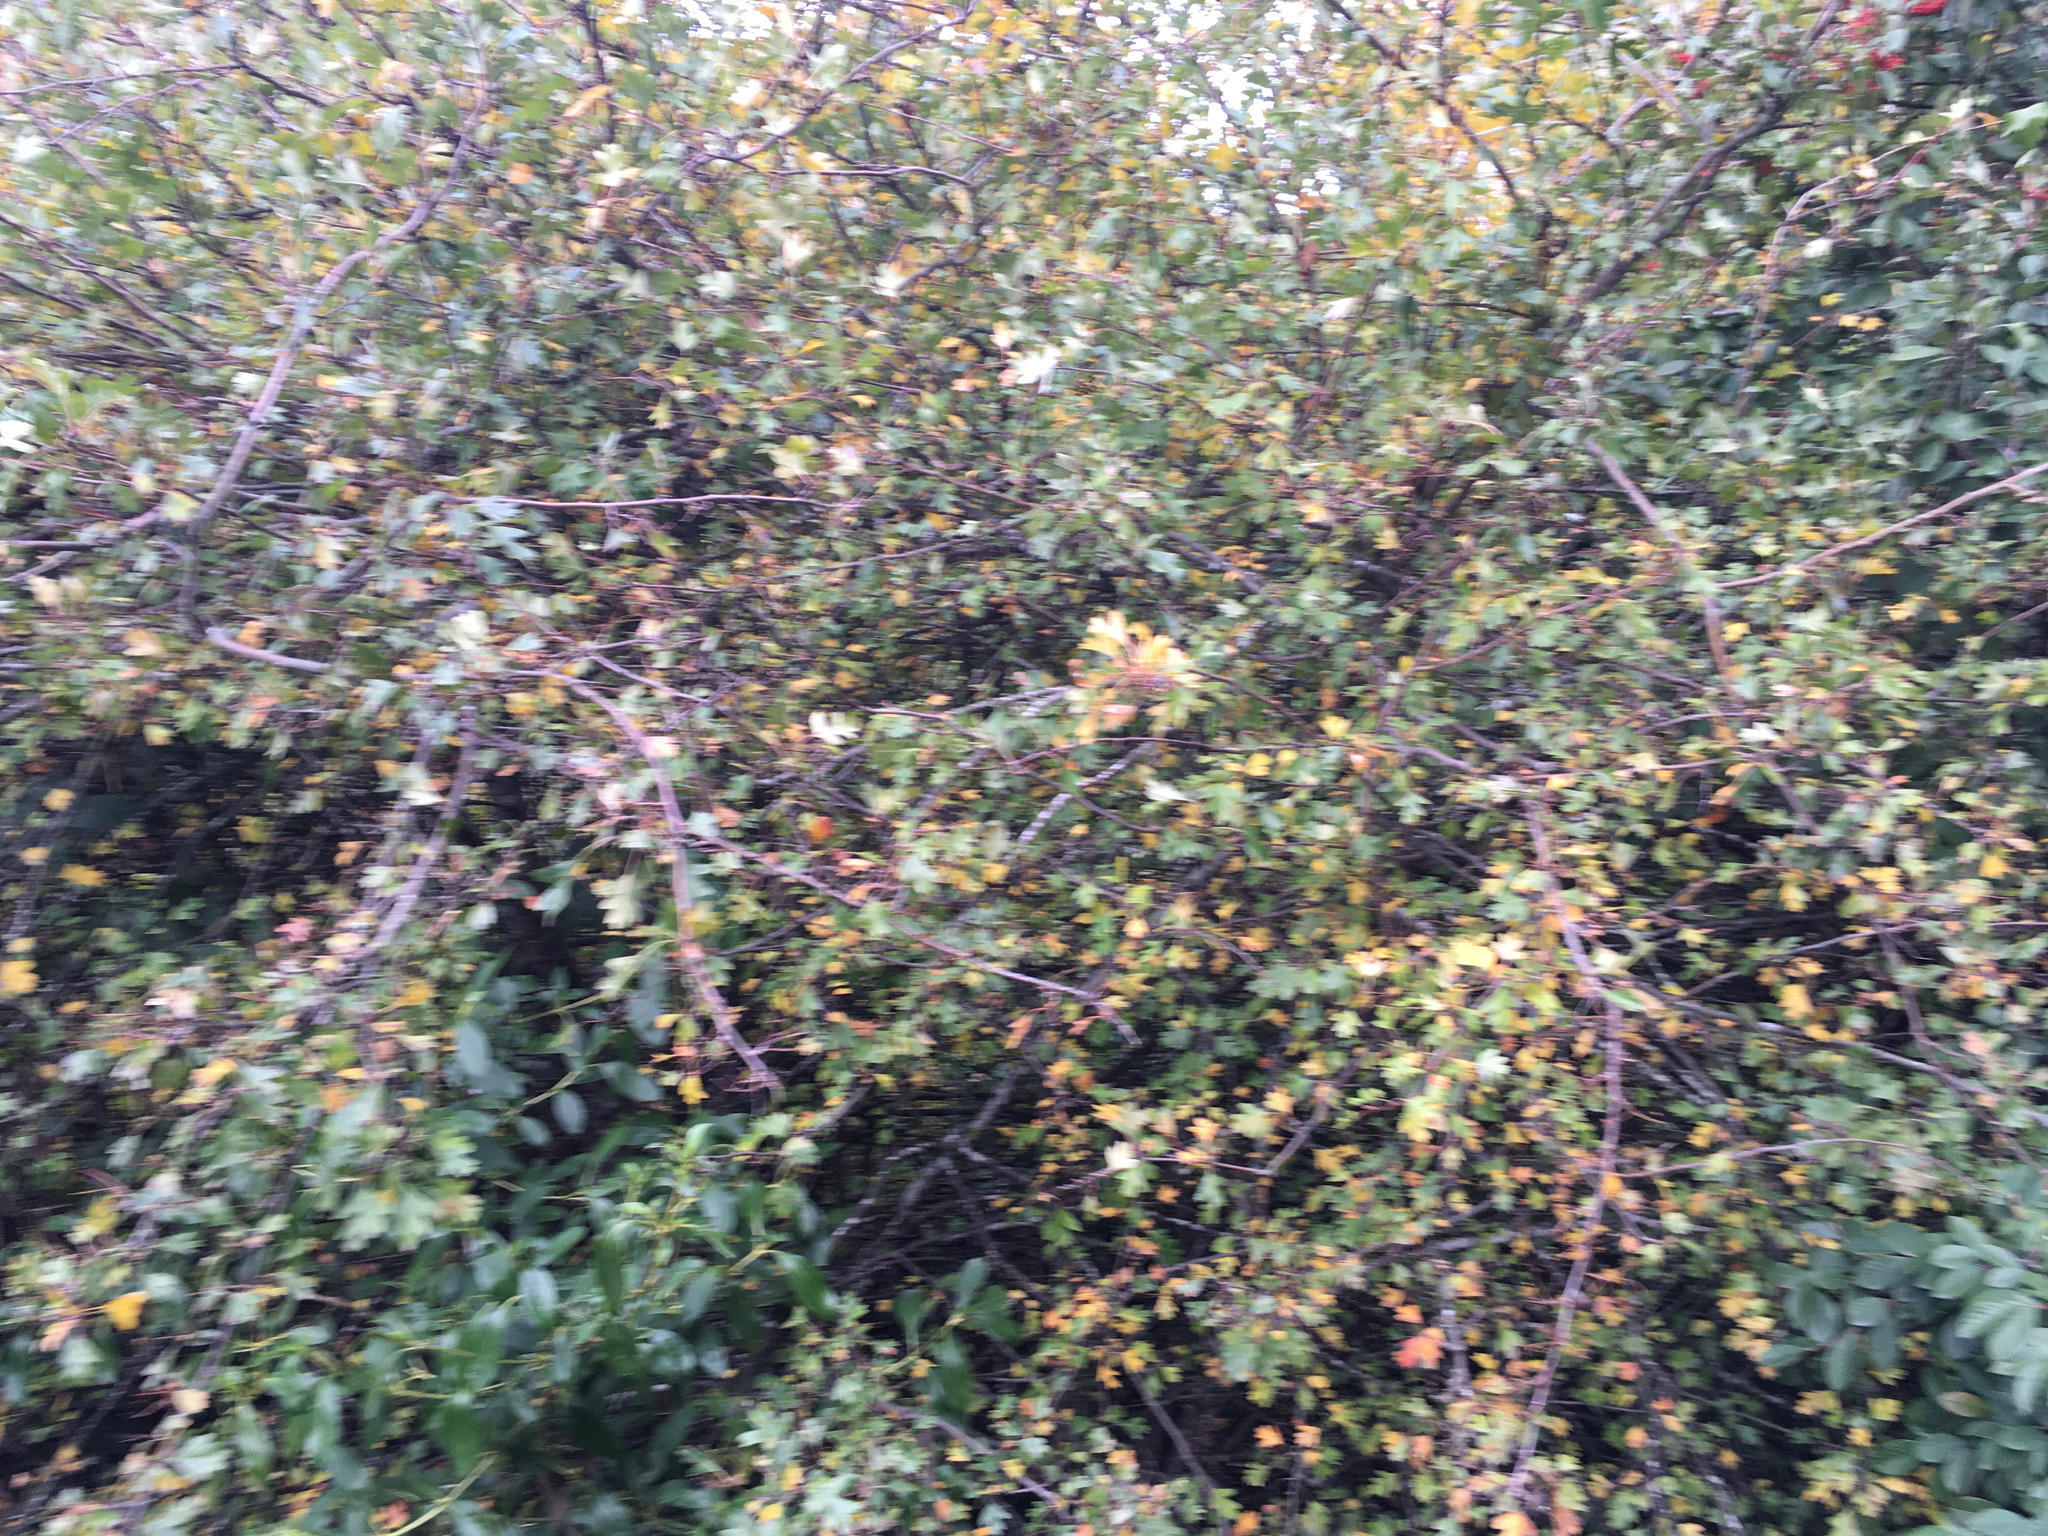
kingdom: Plantae
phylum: Tracheophyta
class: Magnoliopsida
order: Rosales
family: Rosaceae
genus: Crataegus
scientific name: Crataegus monogyna
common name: Hawthorn
